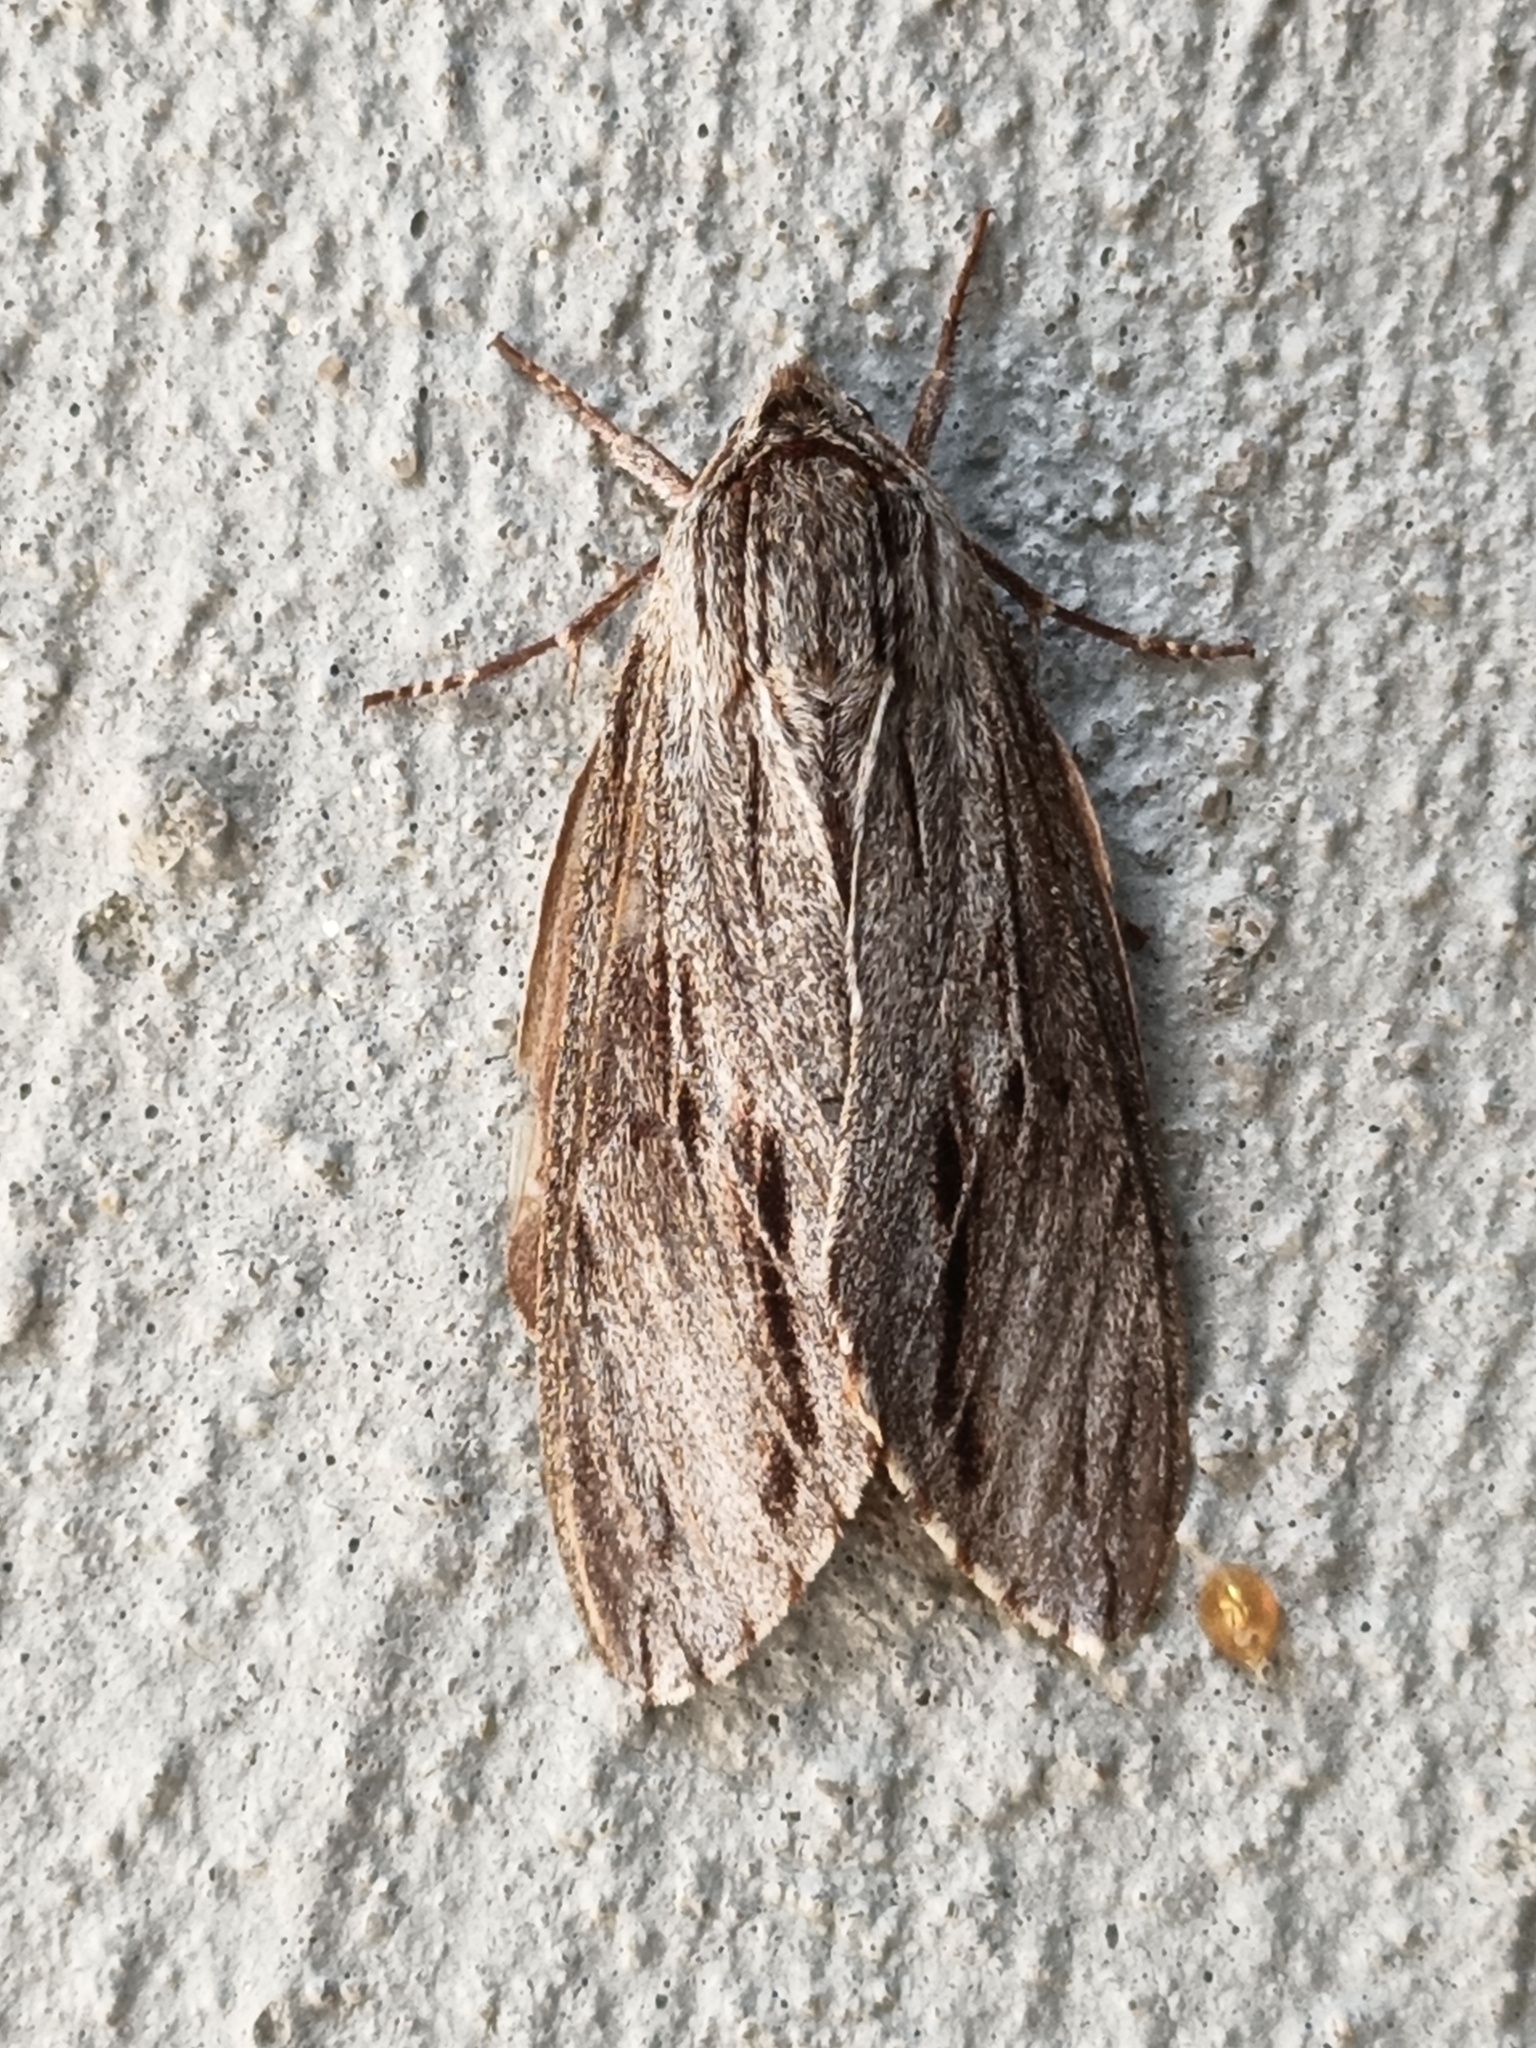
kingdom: Animalia
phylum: Arthropoda
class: Insecta
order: Lepidoptera
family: Sphingidae
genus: Isoparce
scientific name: Isoparce cupressi
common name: Cypress sphinx
